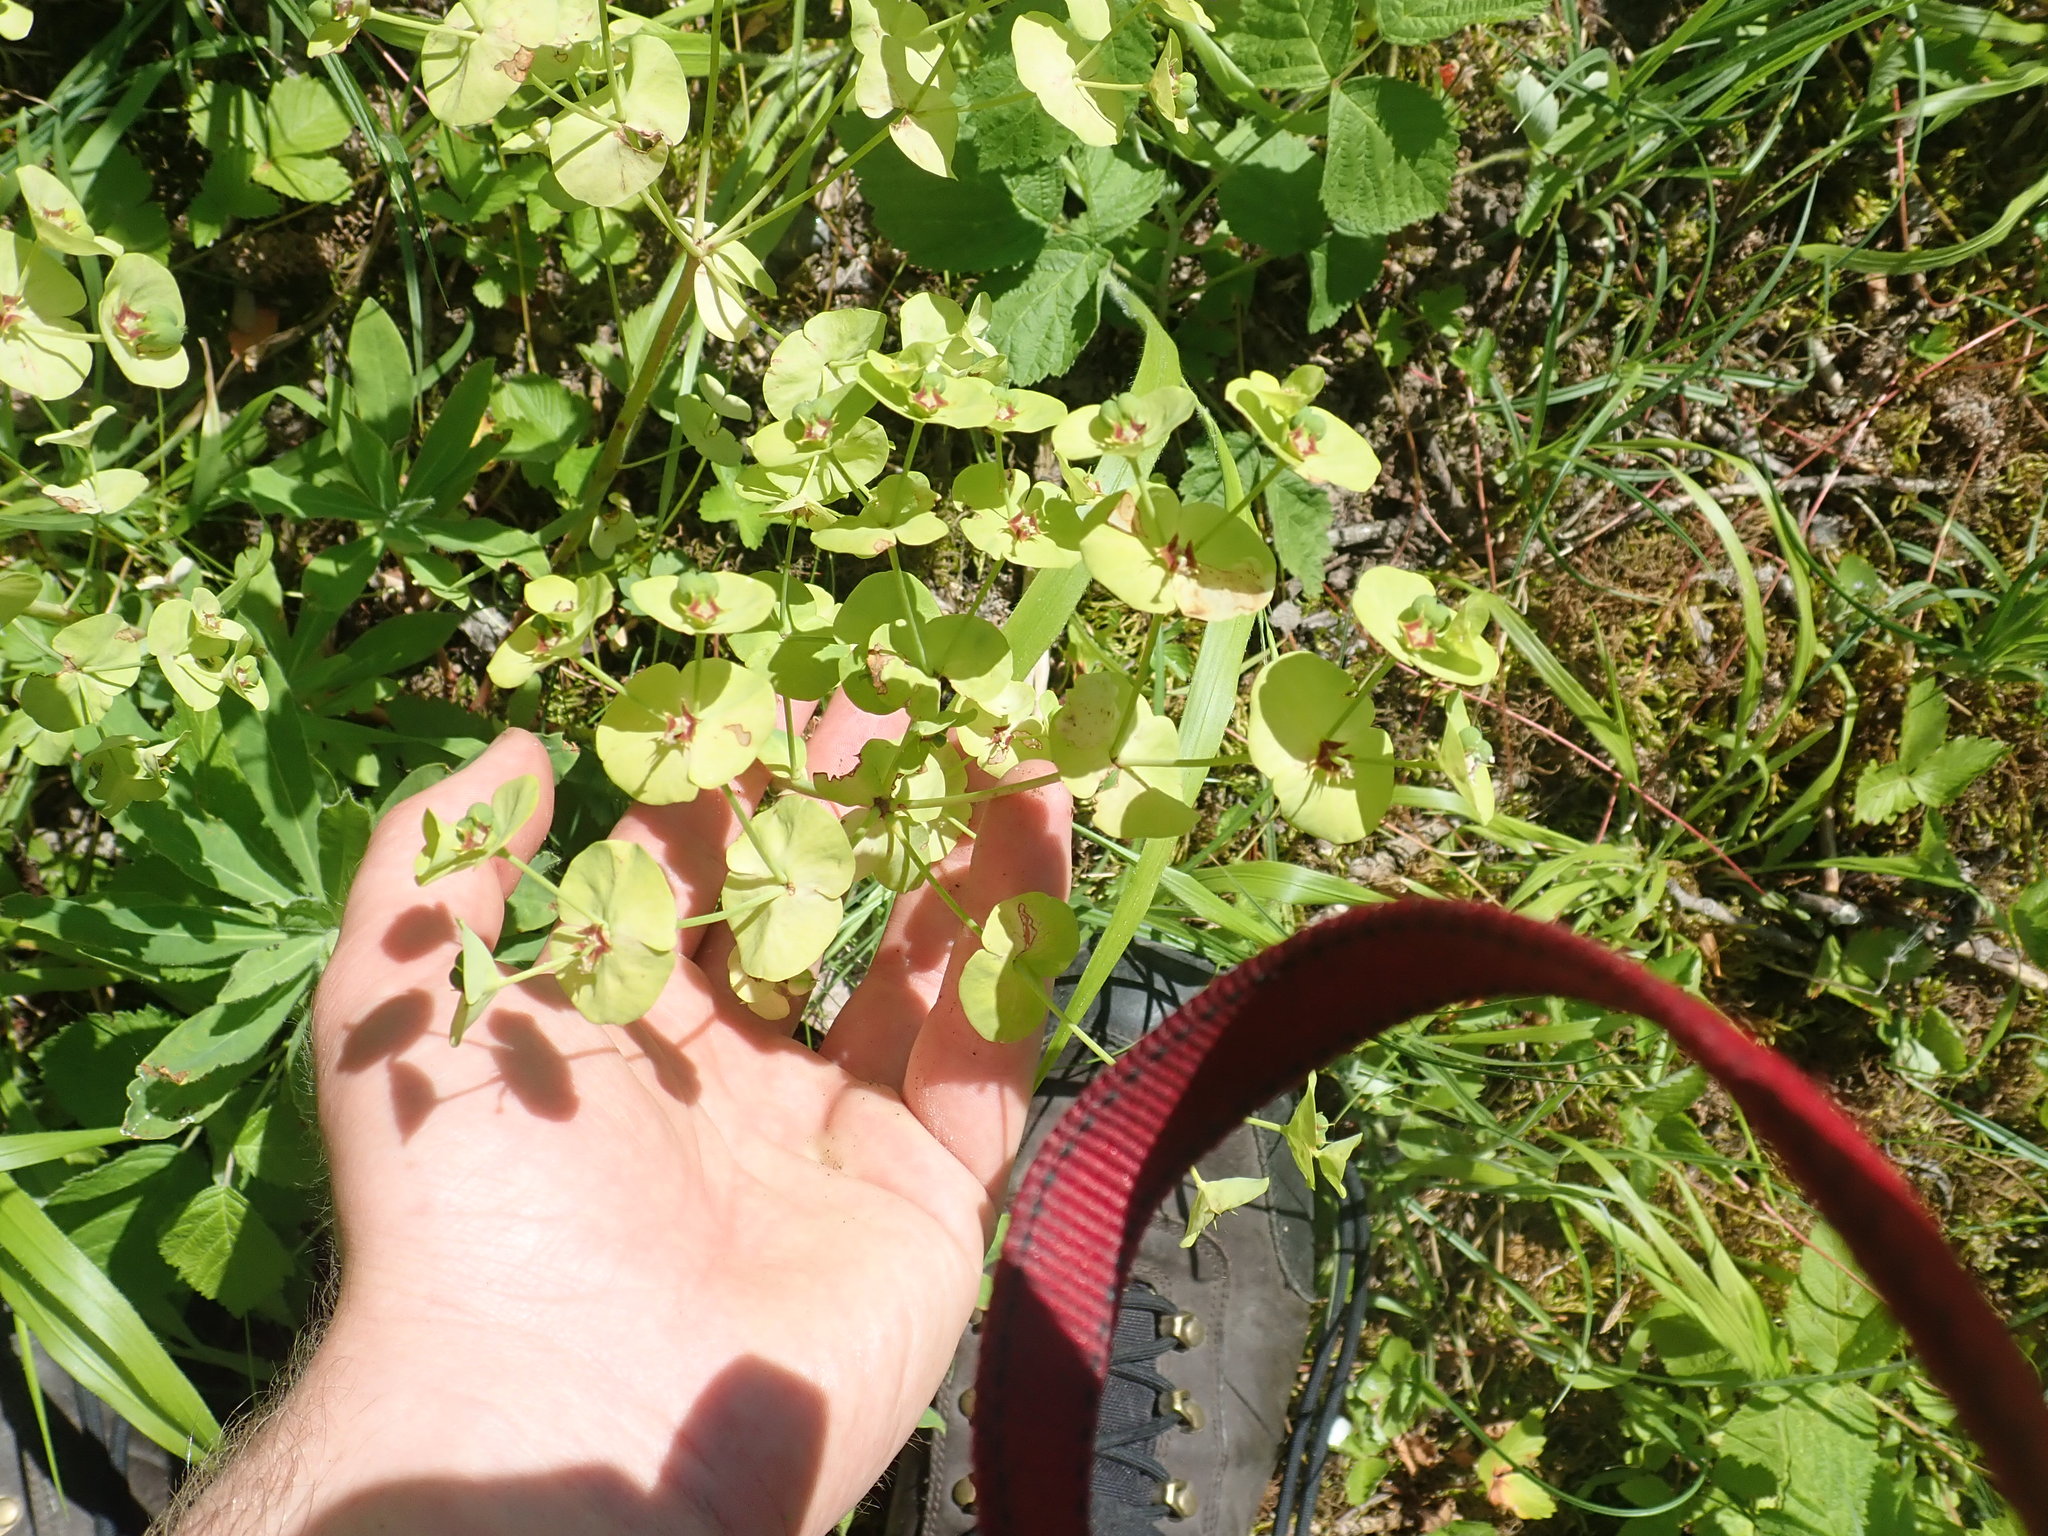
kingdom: Plantae
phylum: Tracheophyta
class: Magnoliopsida
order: Malpighiales
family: Euphorbiaceae
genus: Euphorbia
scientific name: Euphorbia amygdaloides
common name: Wood spurge
